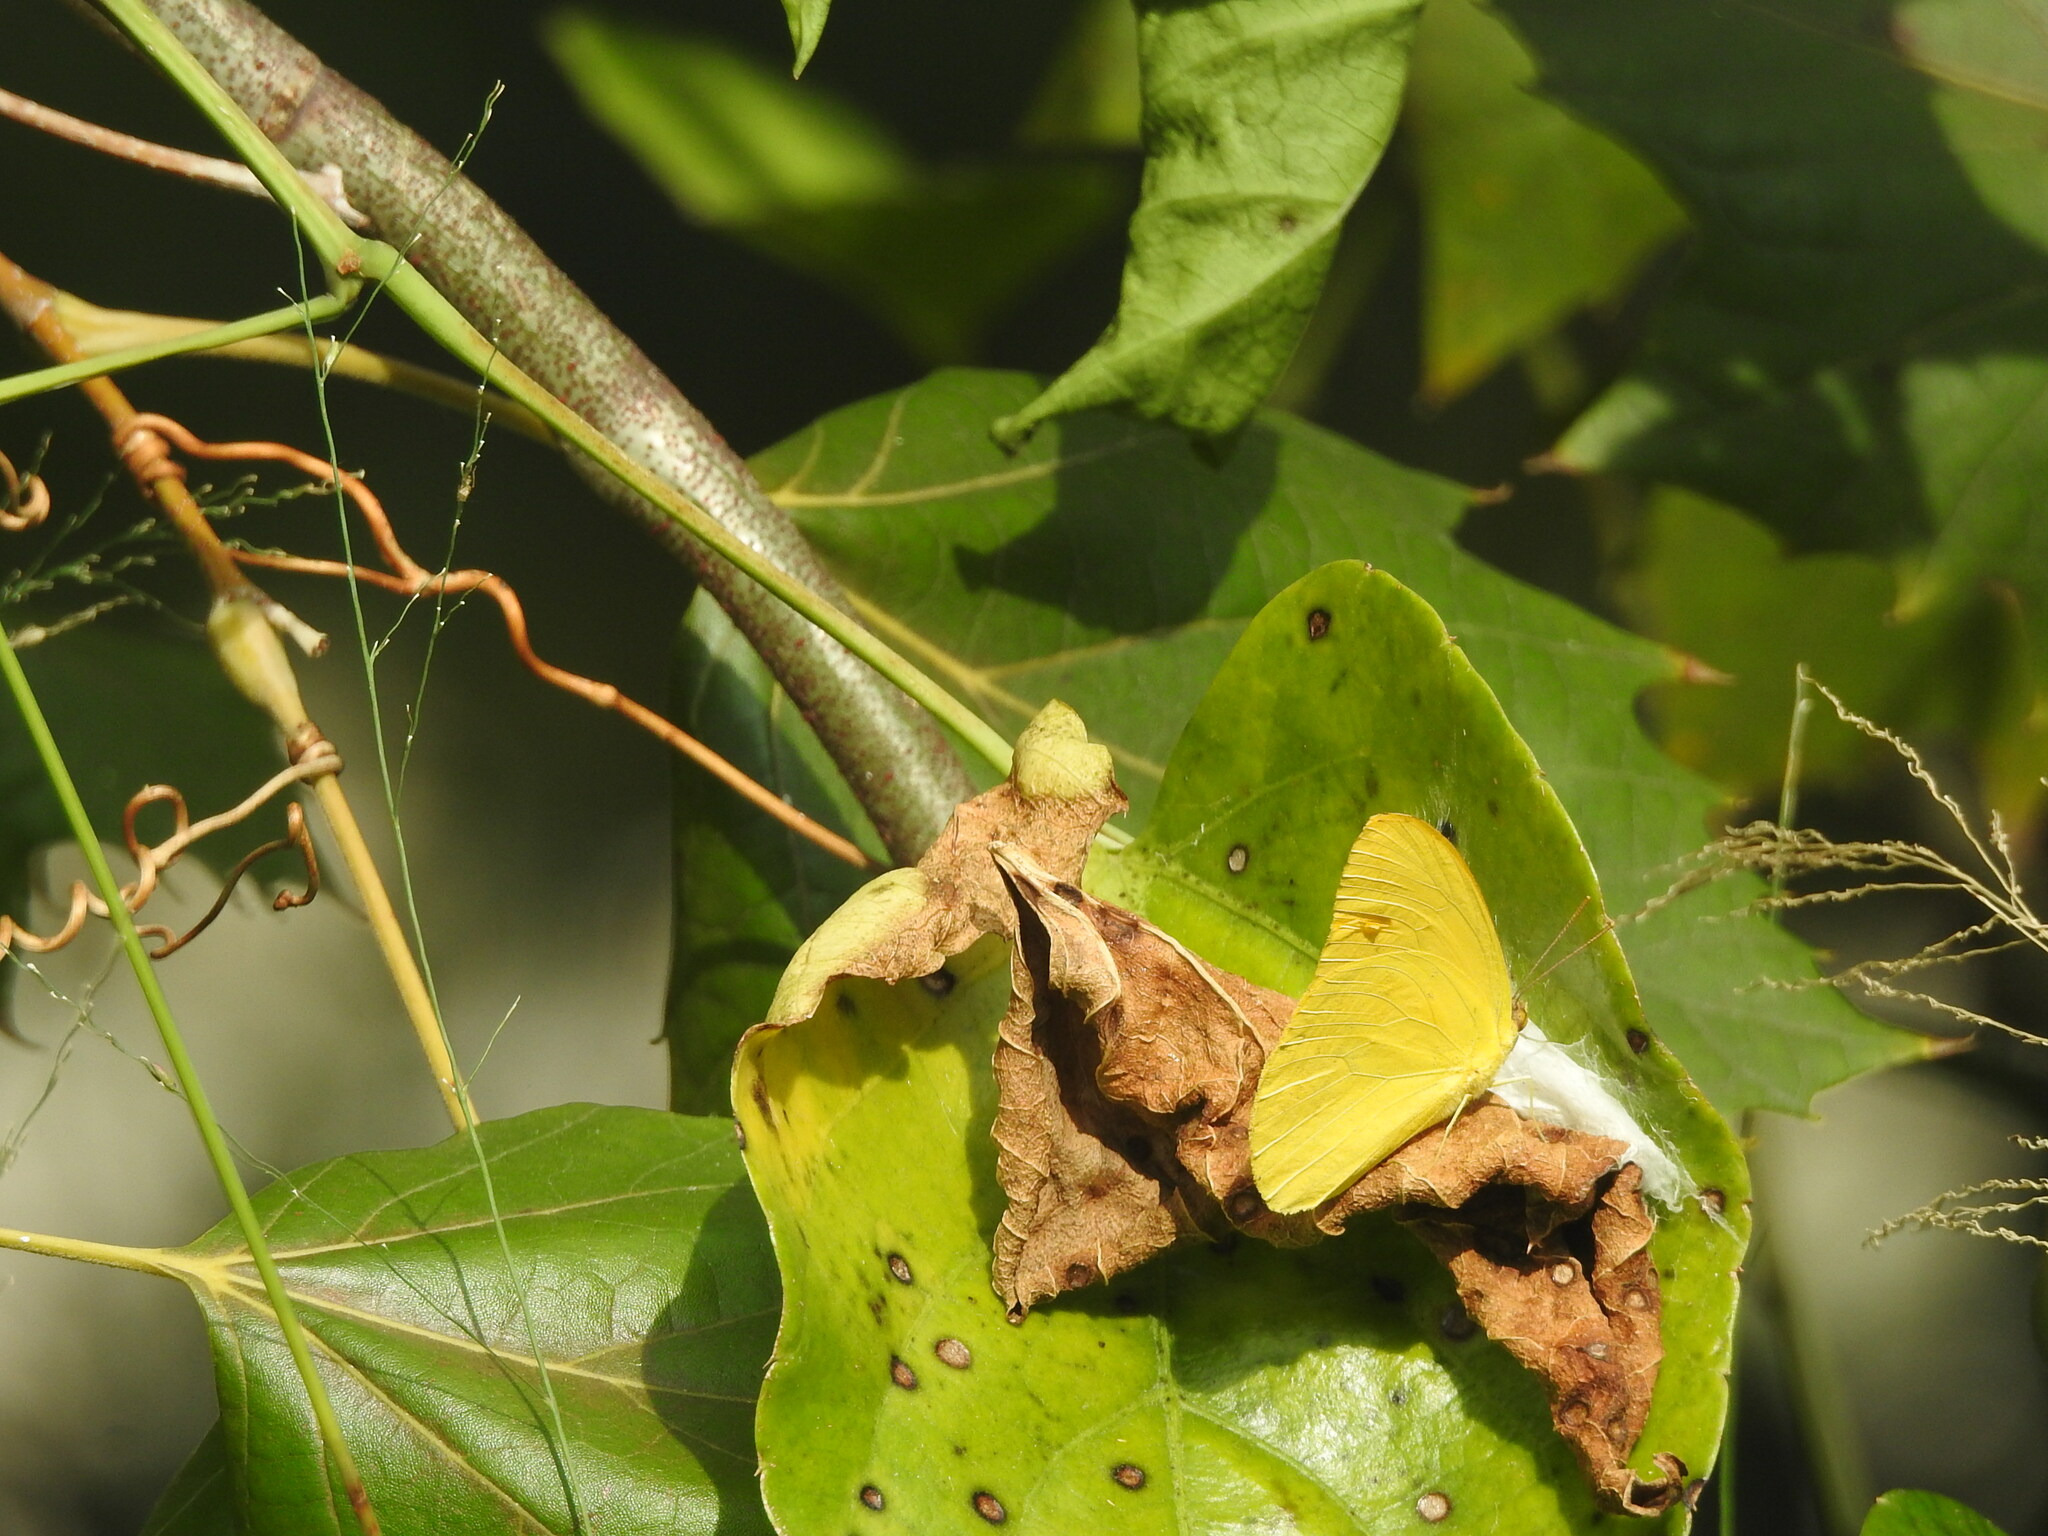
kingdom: Animalia
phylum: Arthropoda
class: Insecta
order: Lepidoptera
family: Pieridae
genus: Phoebis
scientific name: Phoebis agarithe
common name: Large orange sulphur
